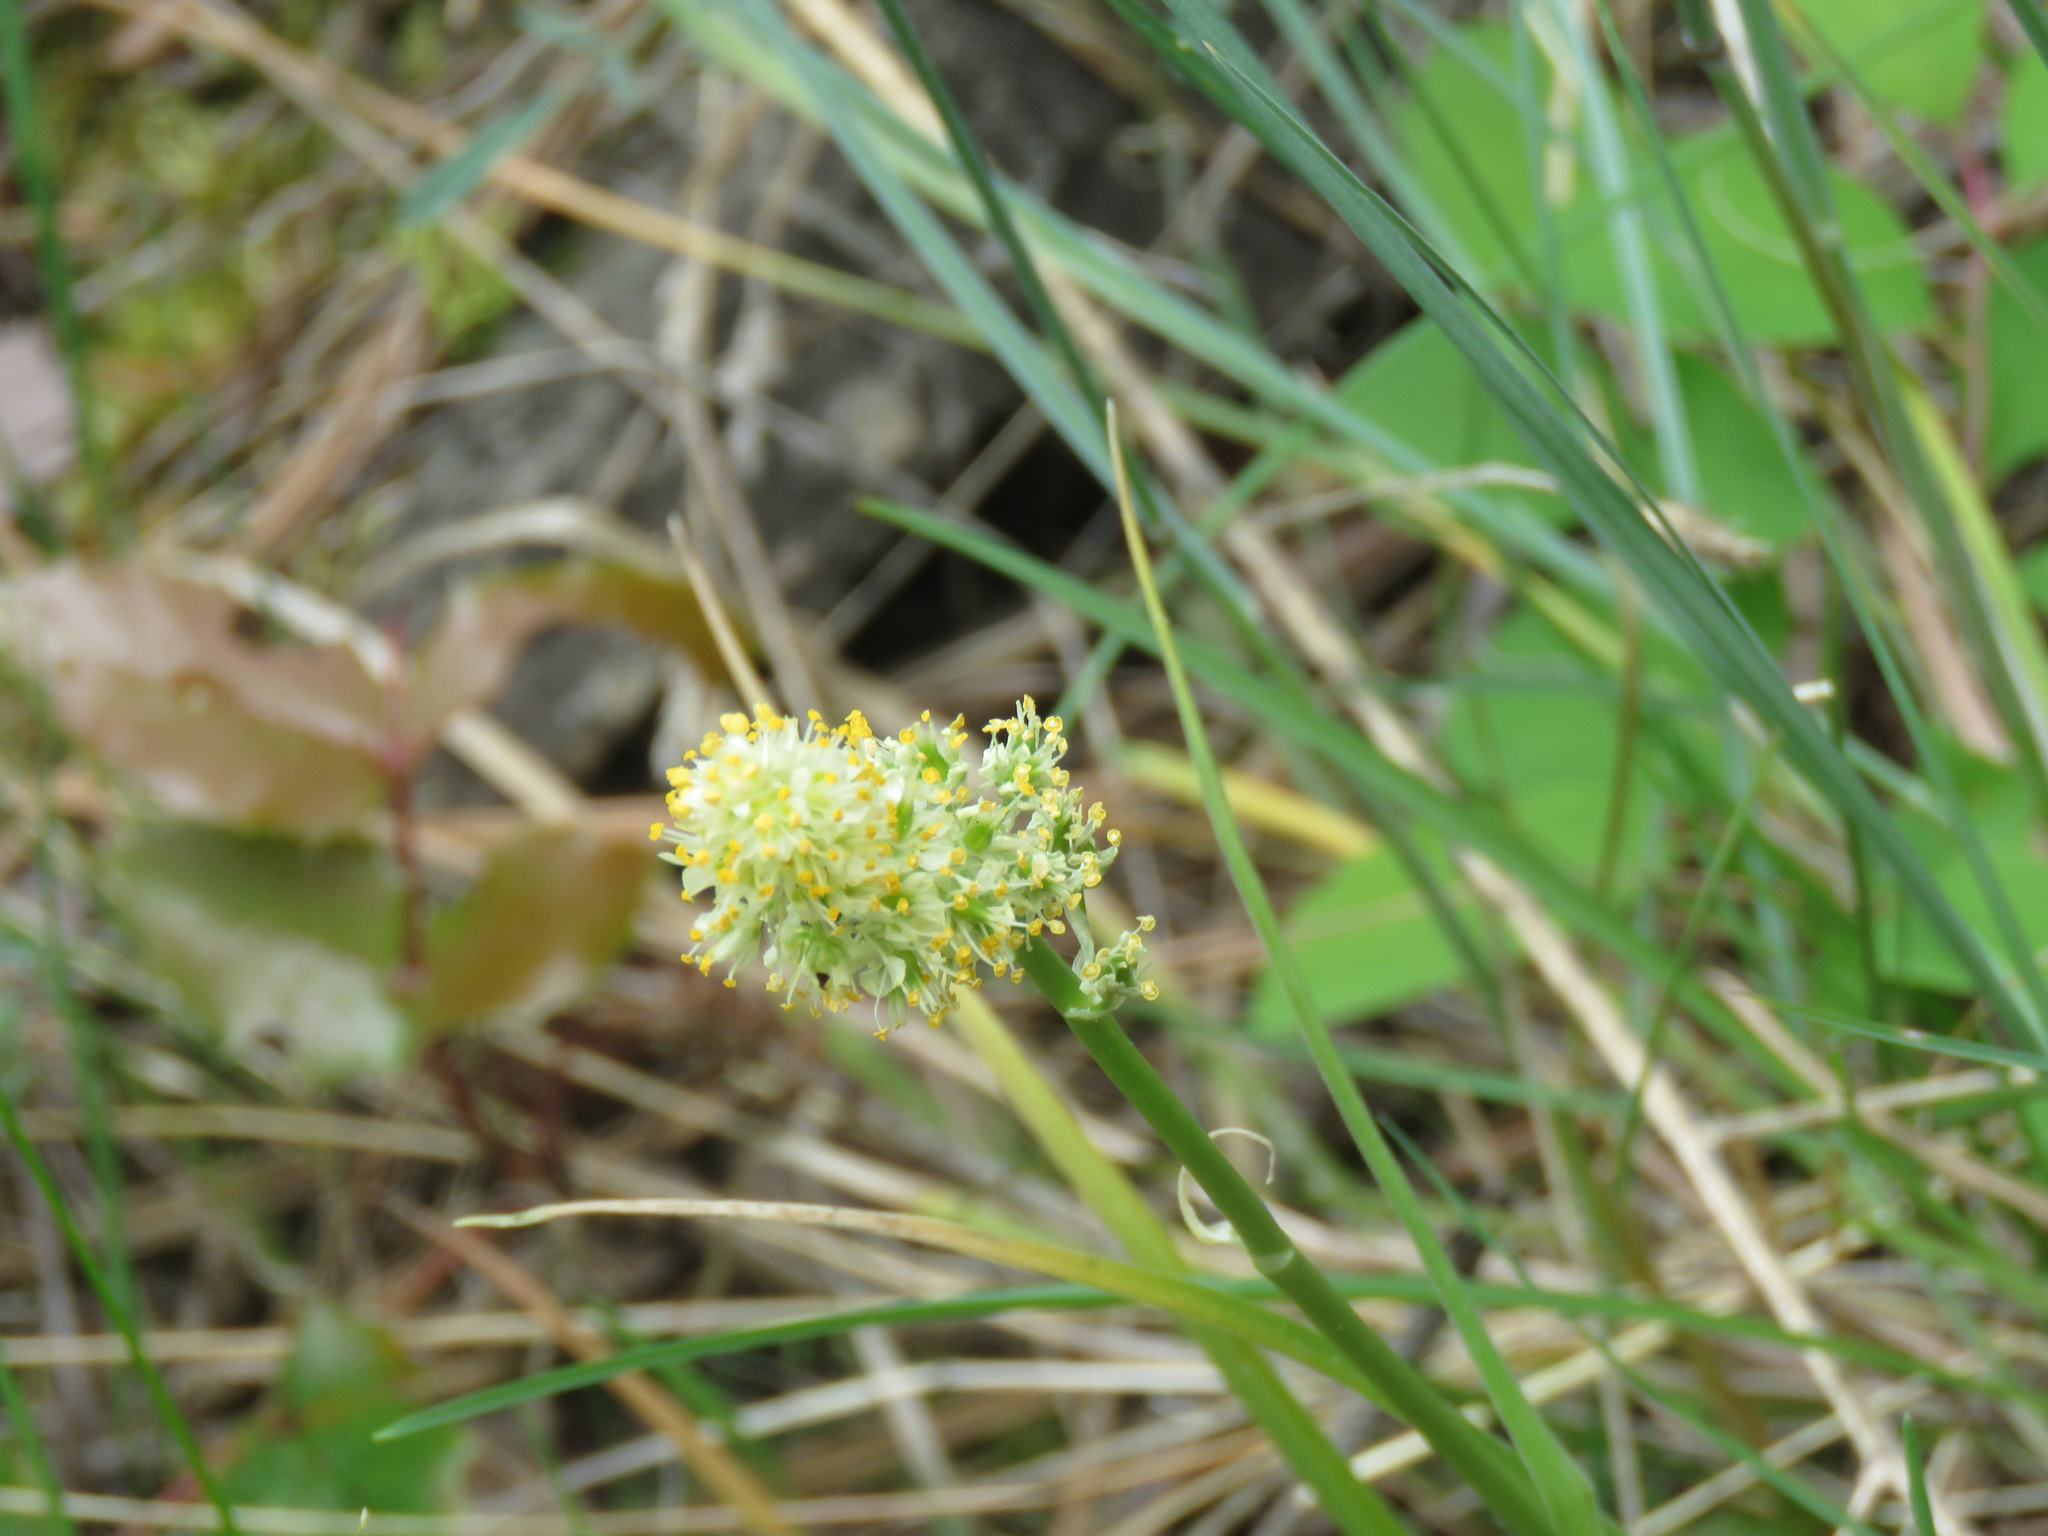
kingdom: Plantae
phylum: Tracheophyta
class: Liliopsida
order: Liliales
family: Melanthiaceae
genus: Toxicoscordion
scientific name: Toxicoscordion venenosum
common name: Meadow death camas
